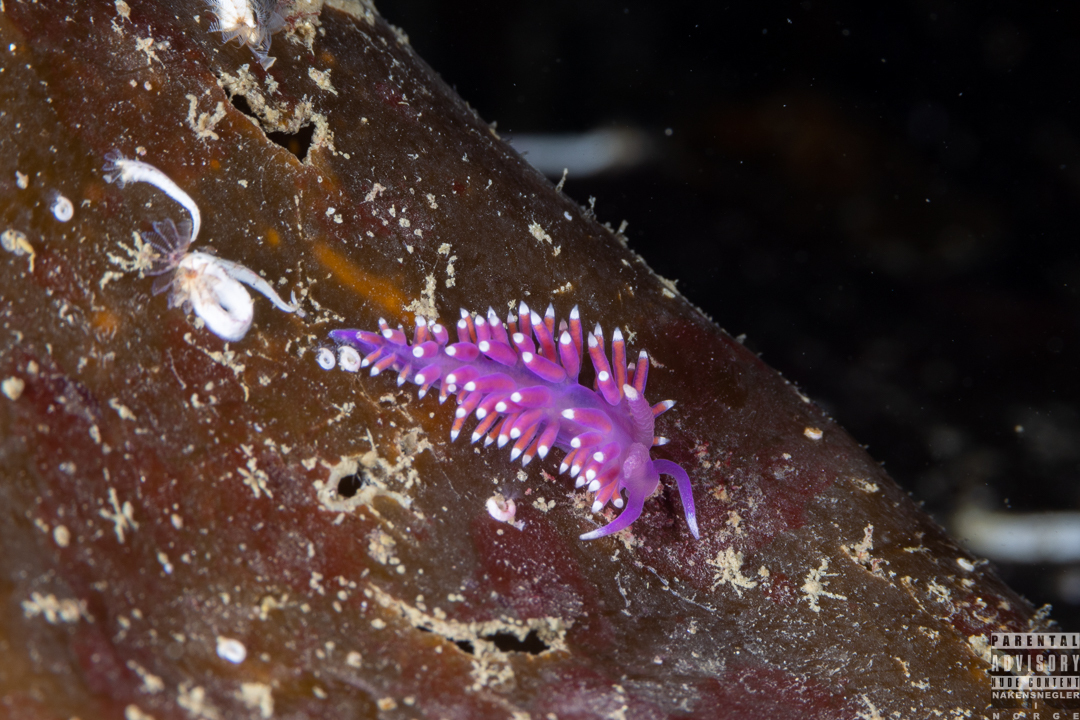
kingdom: Animalia
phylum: Mollusca
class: Gastropoda
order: Nudibranchia
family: Flabellinidae
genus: Edmundsella
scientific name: Edmundsella pedata
